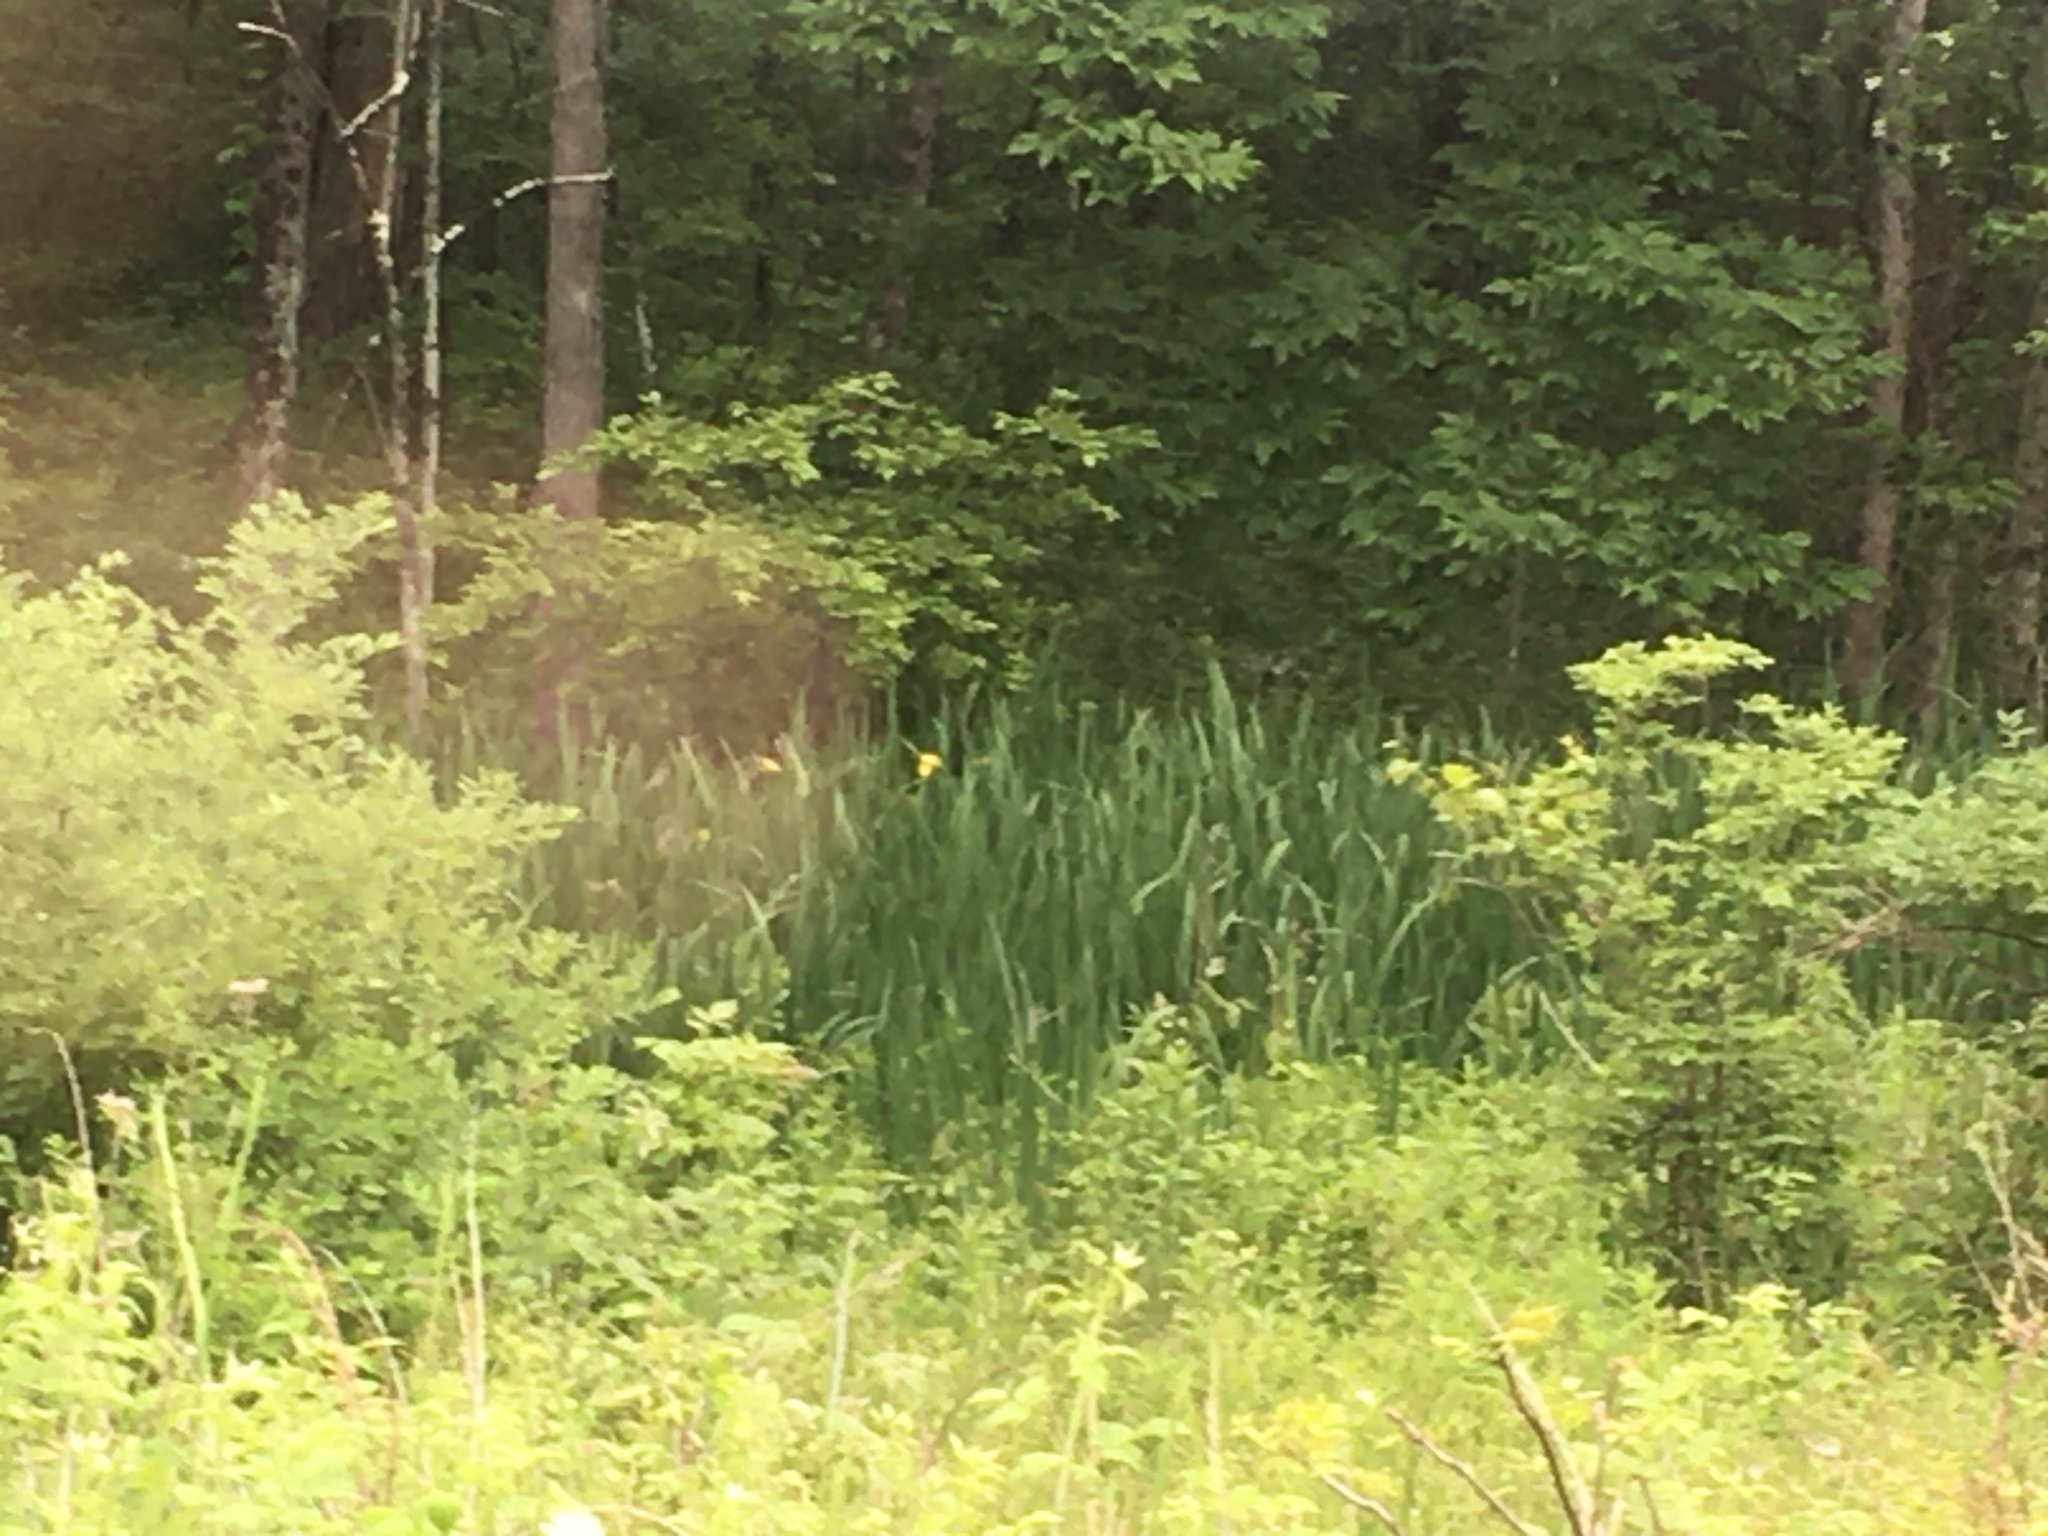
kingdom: Plantae
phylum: Tracheophyta
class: Liliopsida
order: Asparagales
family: Iridaceae
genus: Iris
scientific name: Iris pseudacorus
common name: Yellow flag
